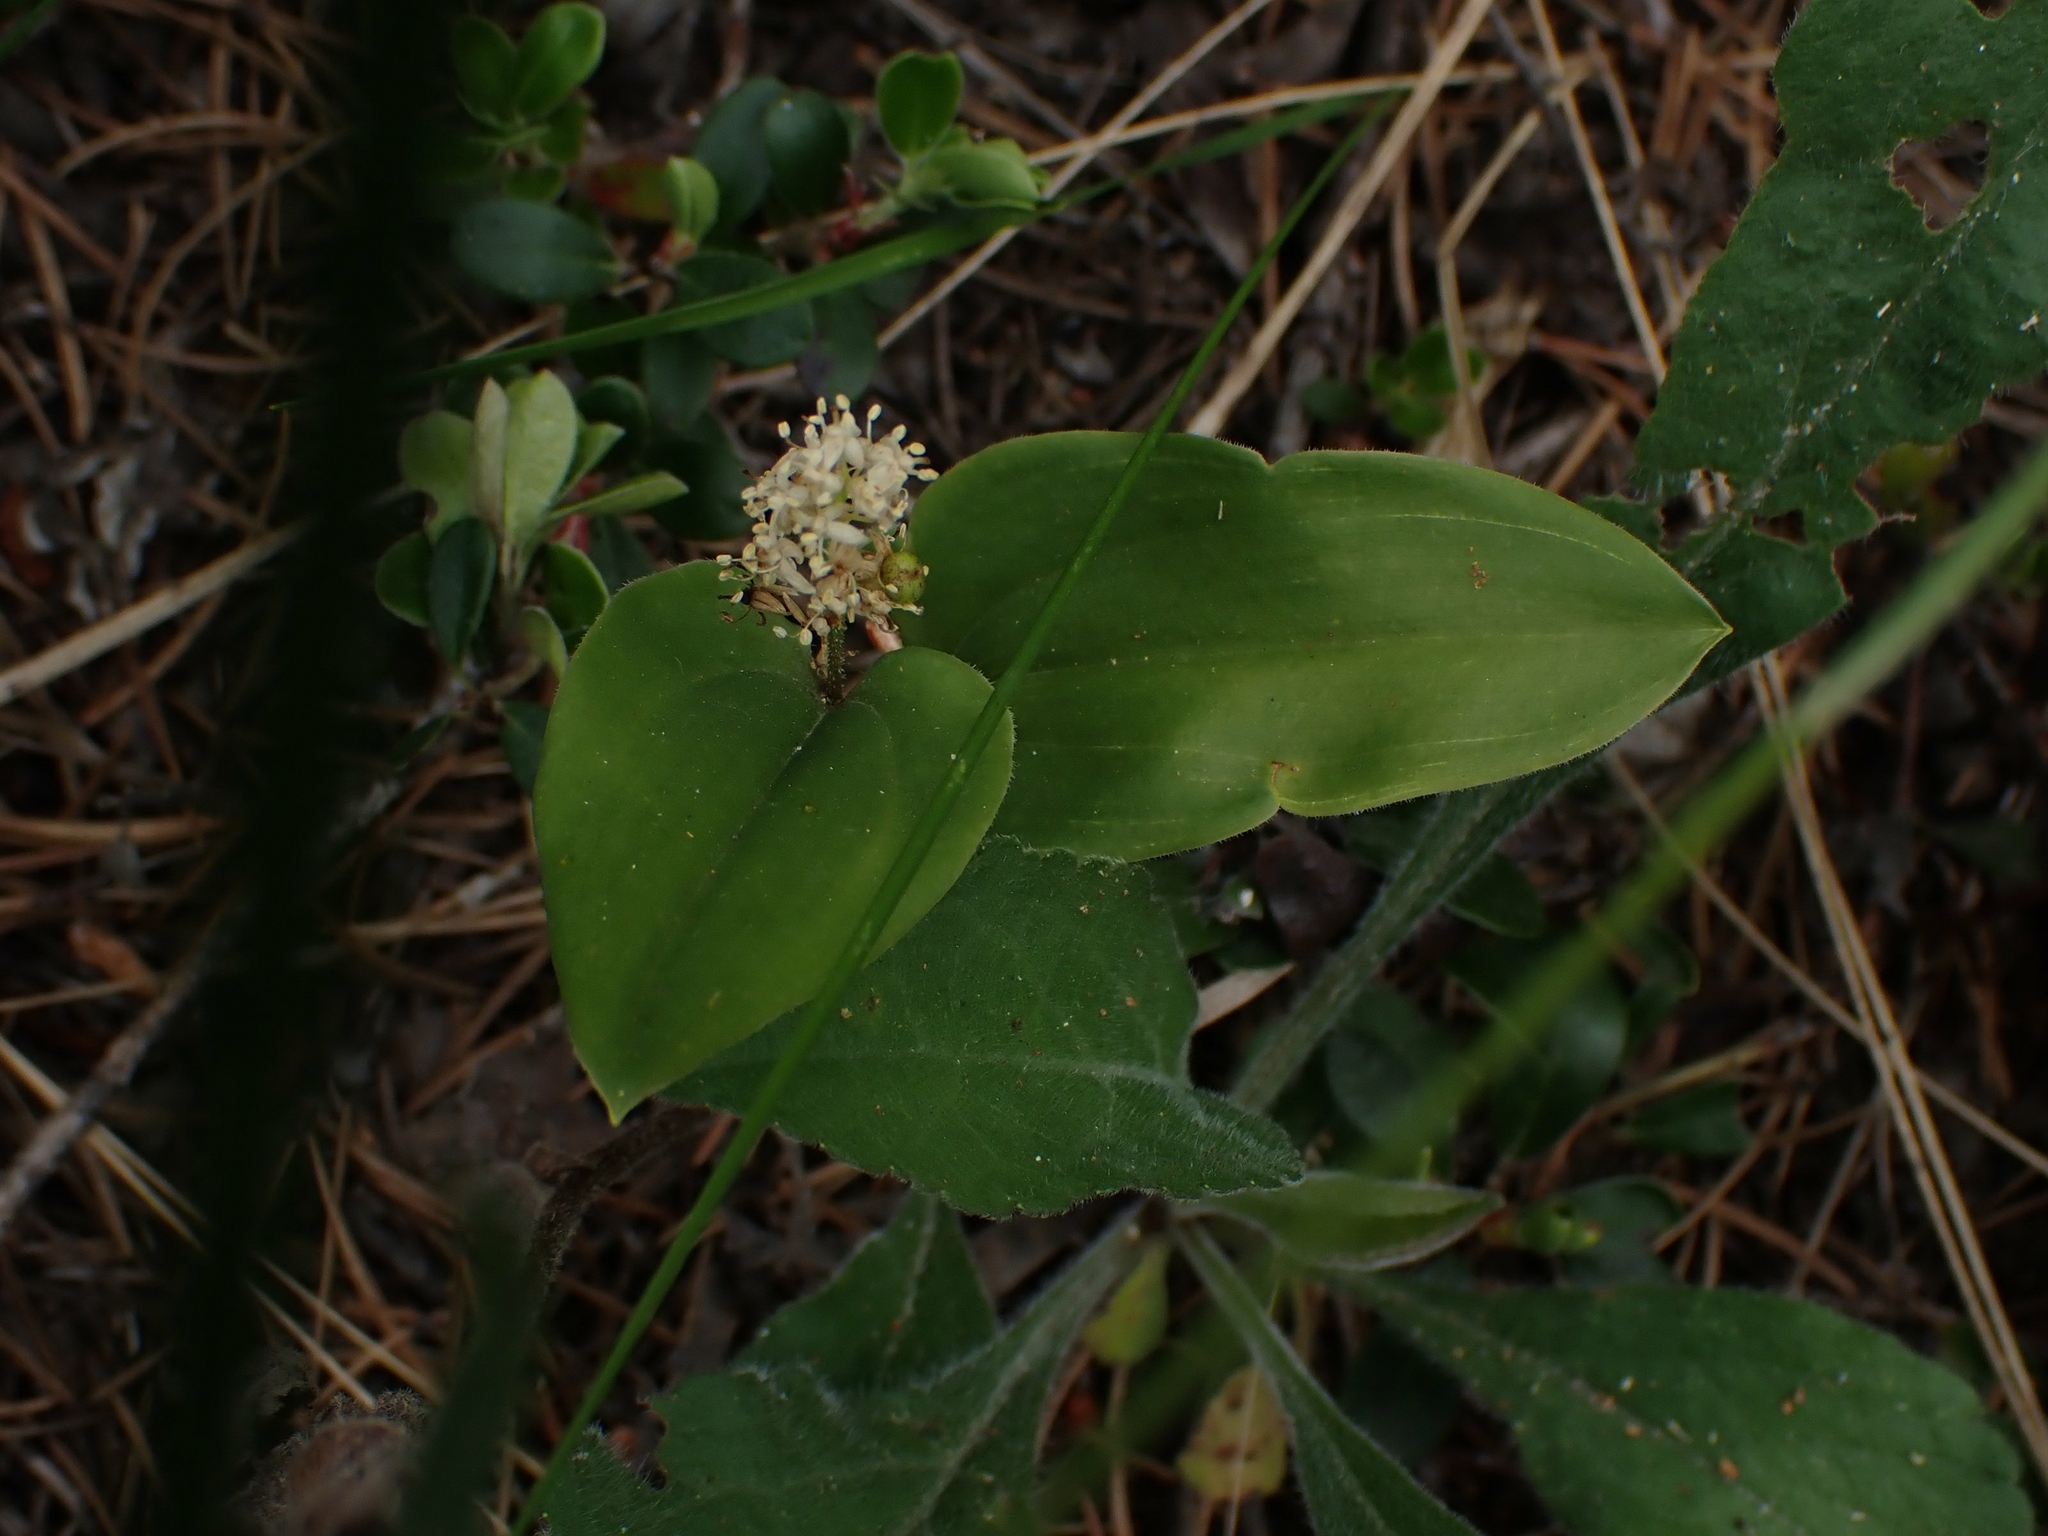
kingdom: Plantae
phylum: Tracheophyta
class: Liliopsida
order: Asparagales
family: Asparagaceae
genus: Maianthemum
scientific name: Maianthemum canadense
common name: False lily-of-the-valley
